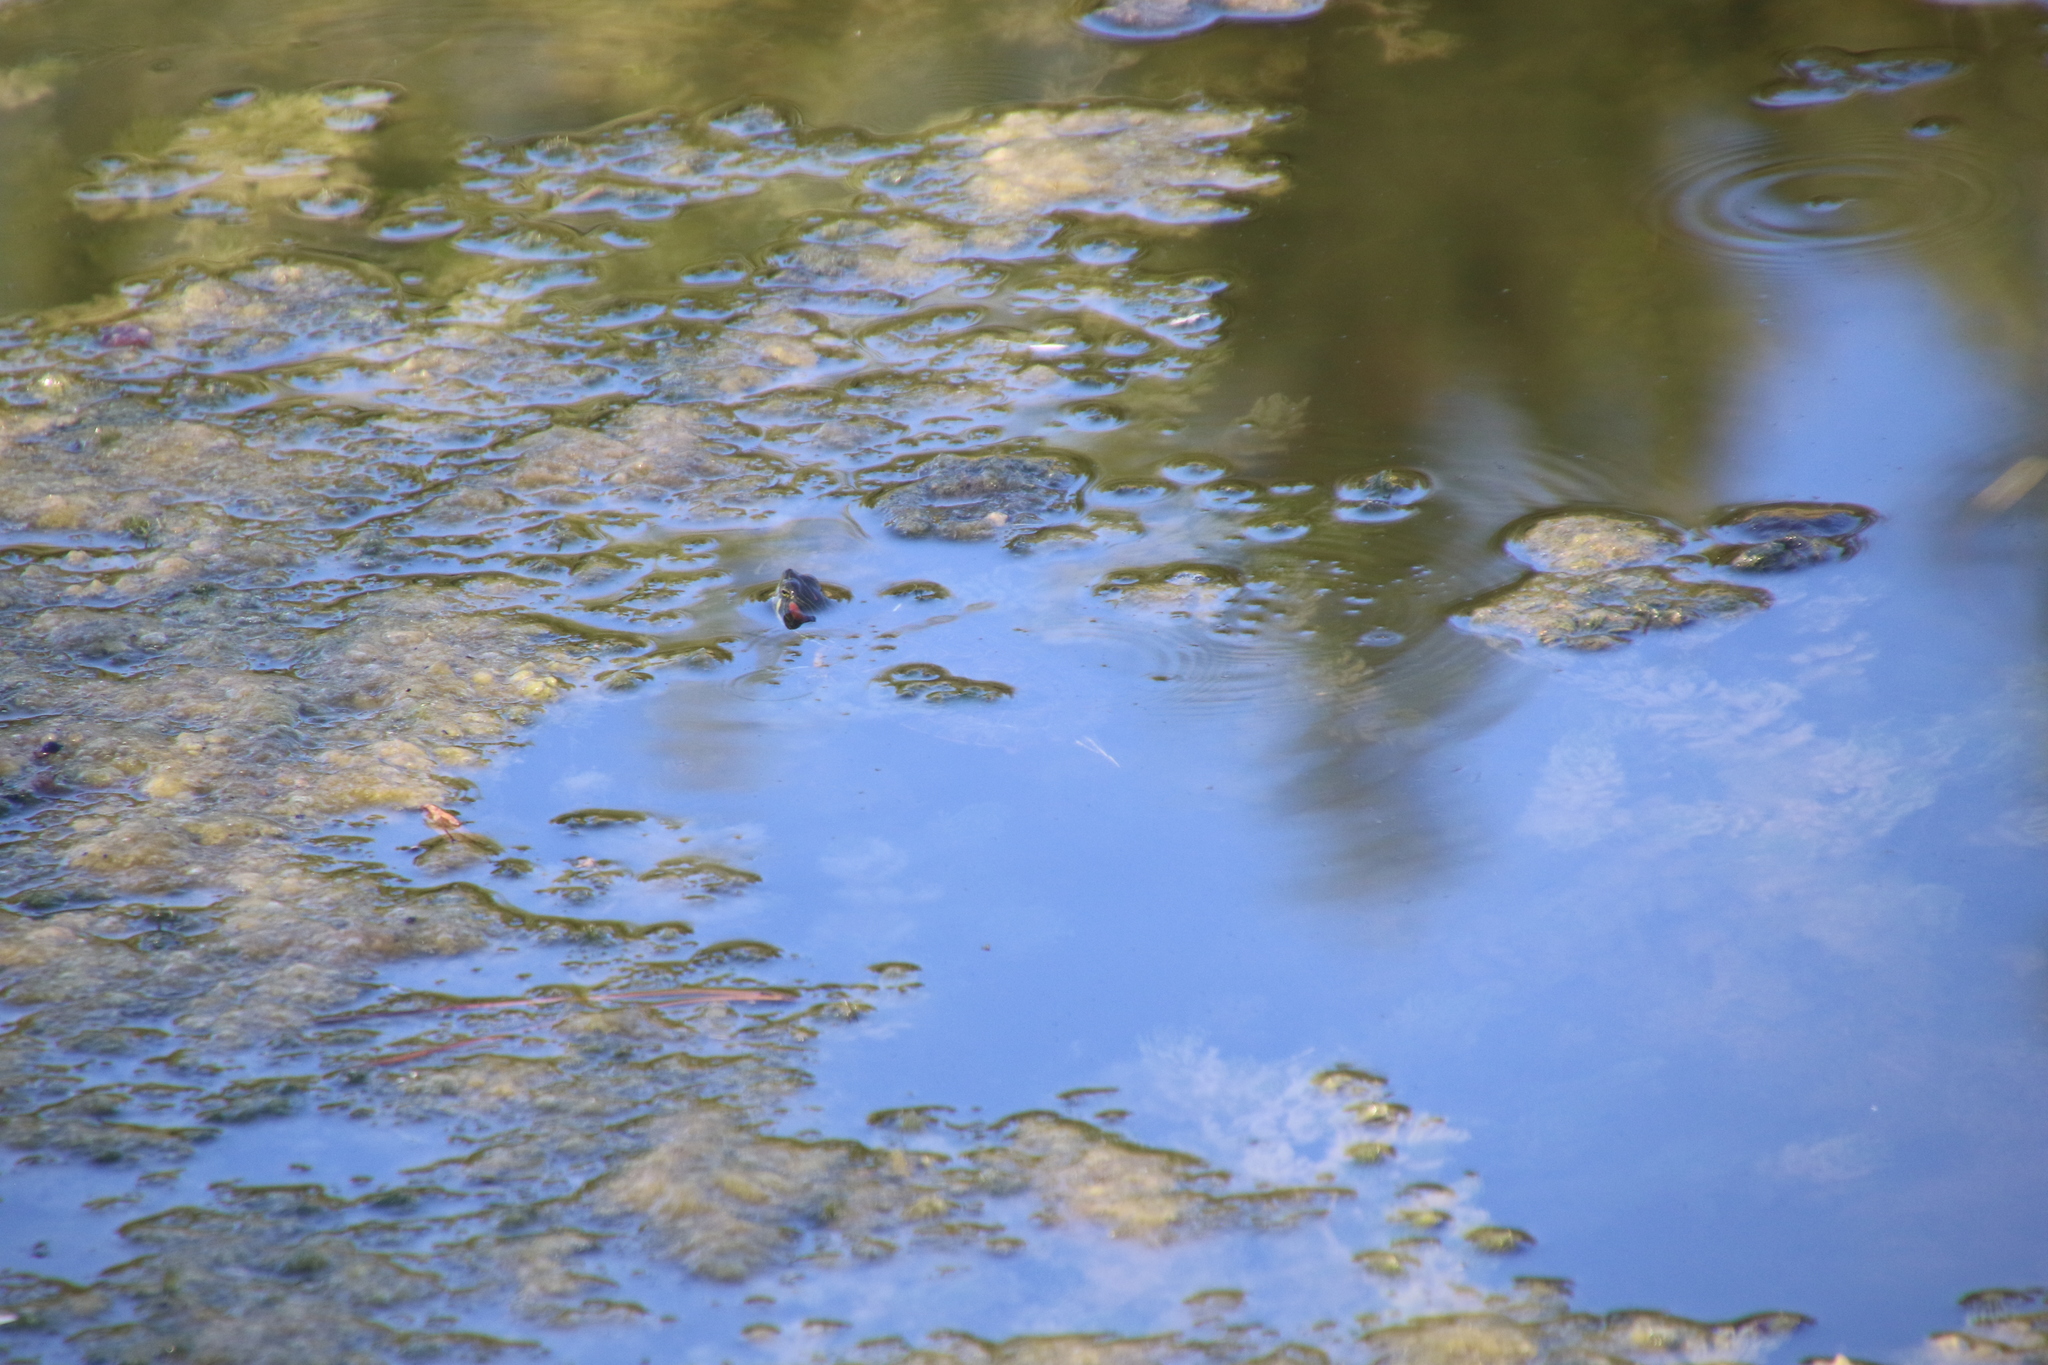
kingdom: Animalia
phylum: Chordata
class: Testudines
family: Emydidae
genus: Trachemys
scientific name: Trachemys scripta
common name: Slider
